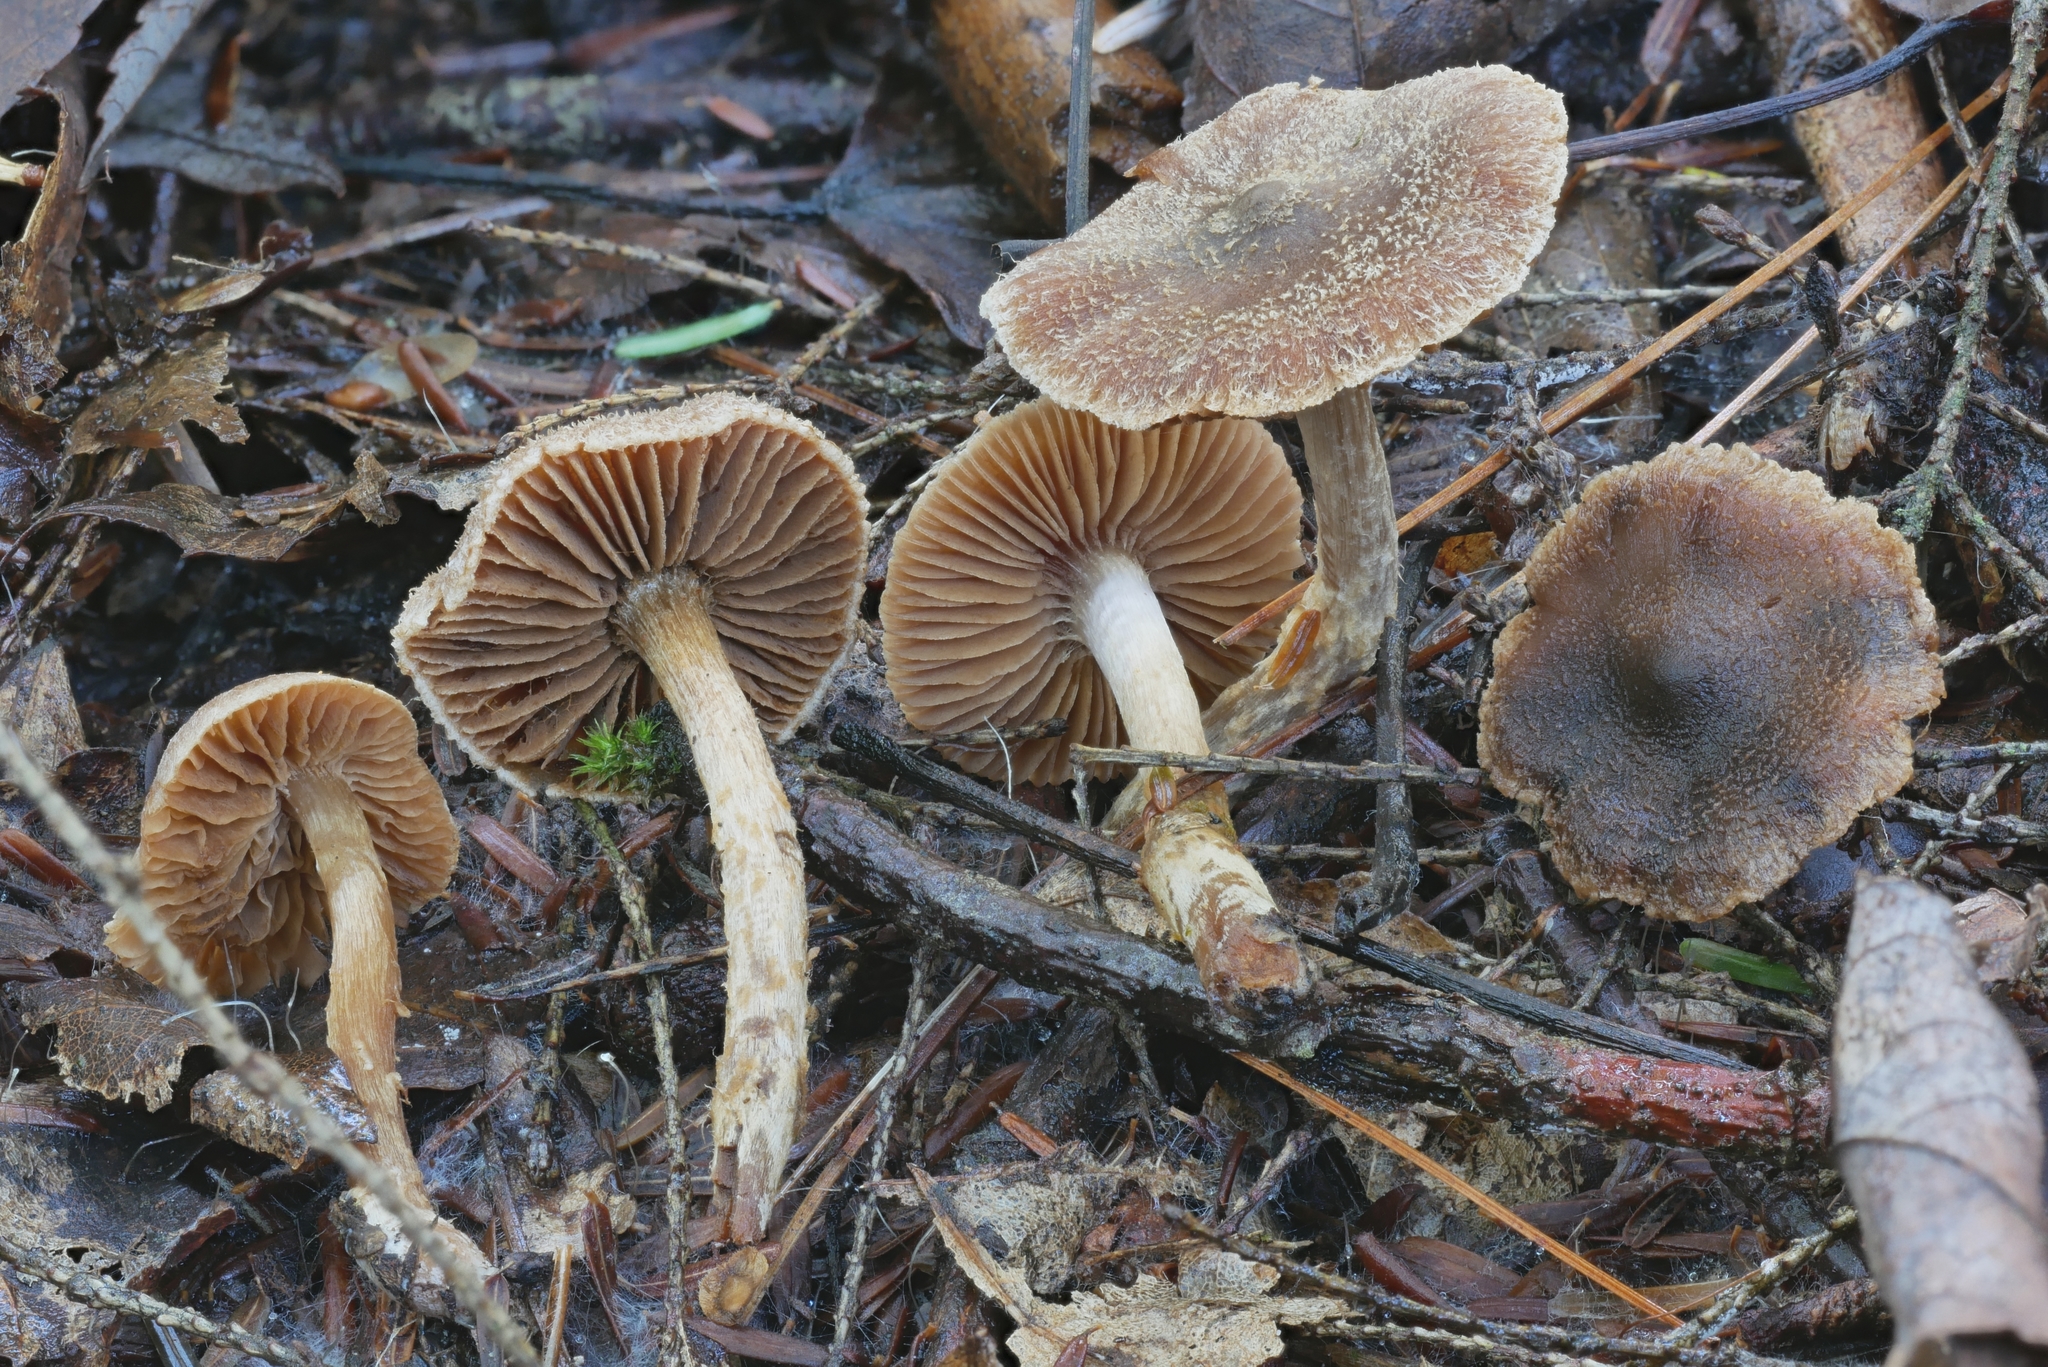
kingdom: Fungi
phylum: Basidiomycota
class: Agaricomycetes
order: Agaricales
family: Cortinariaceae
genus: Cortinarius
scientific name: Cortinarius iliopodius
